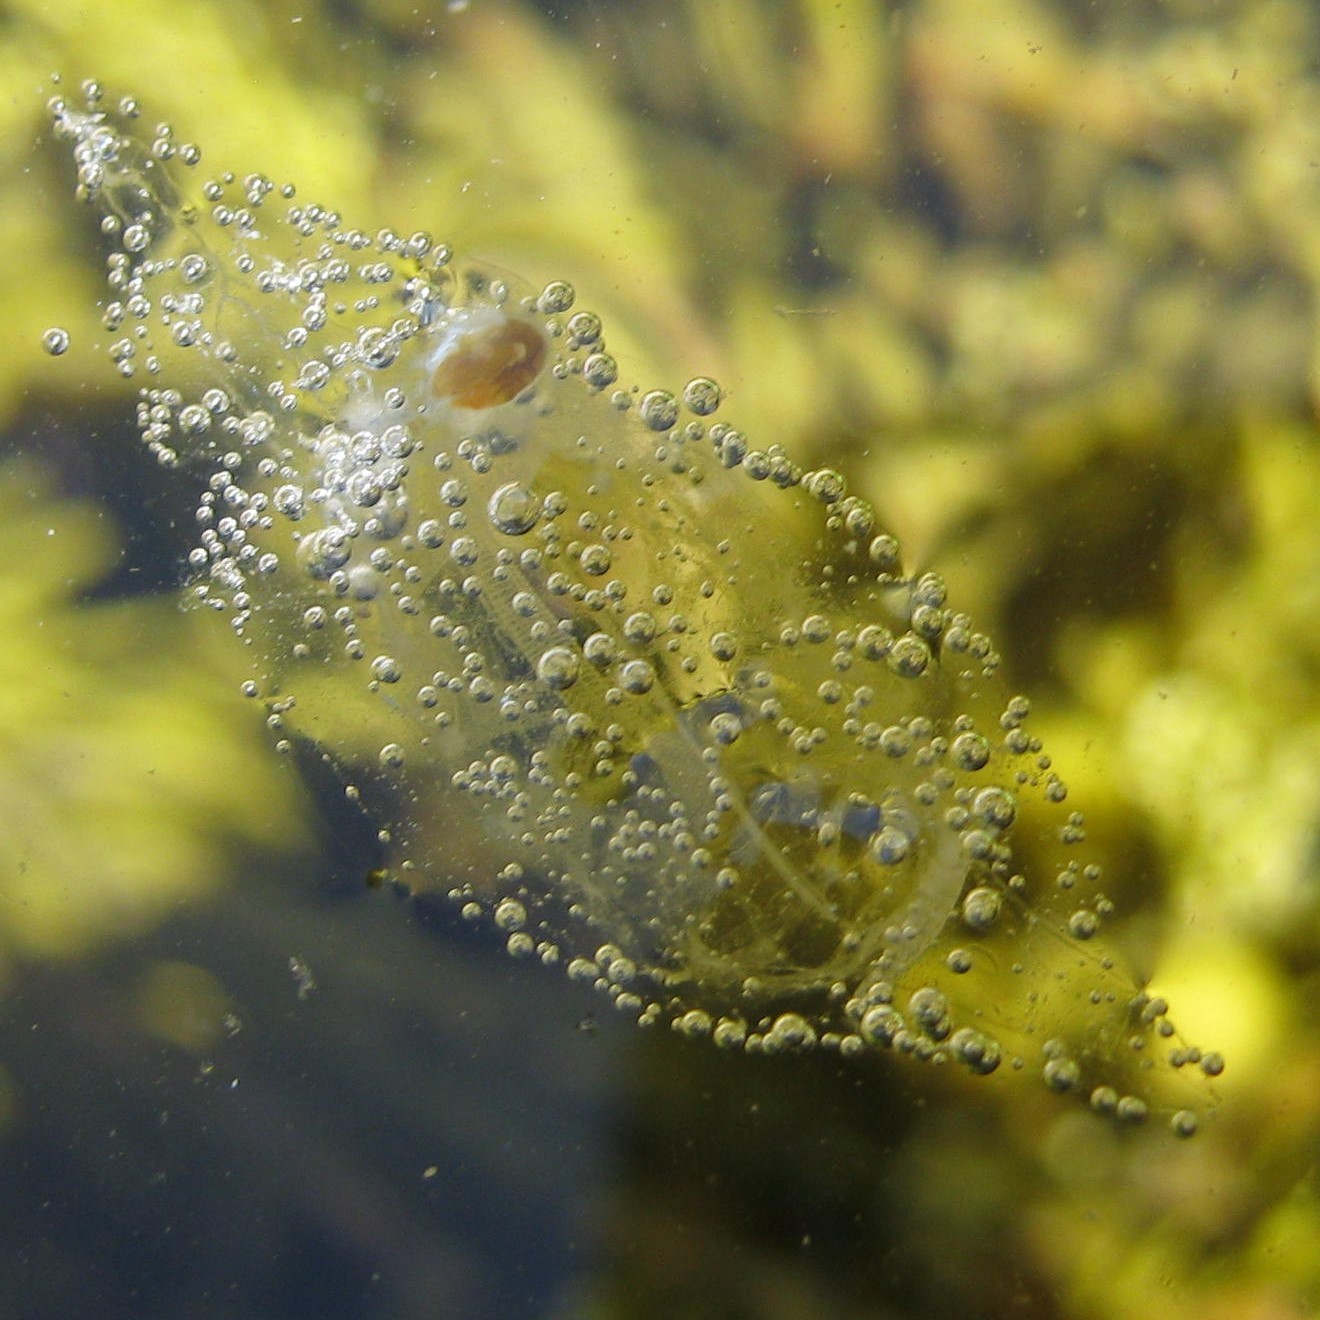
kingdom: Animalia
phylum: Chordata
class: Thaliacea
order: Salpida
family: Salpidae
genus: Soestia
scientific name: Soestia zonaria
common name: Deepsea solitary salp
